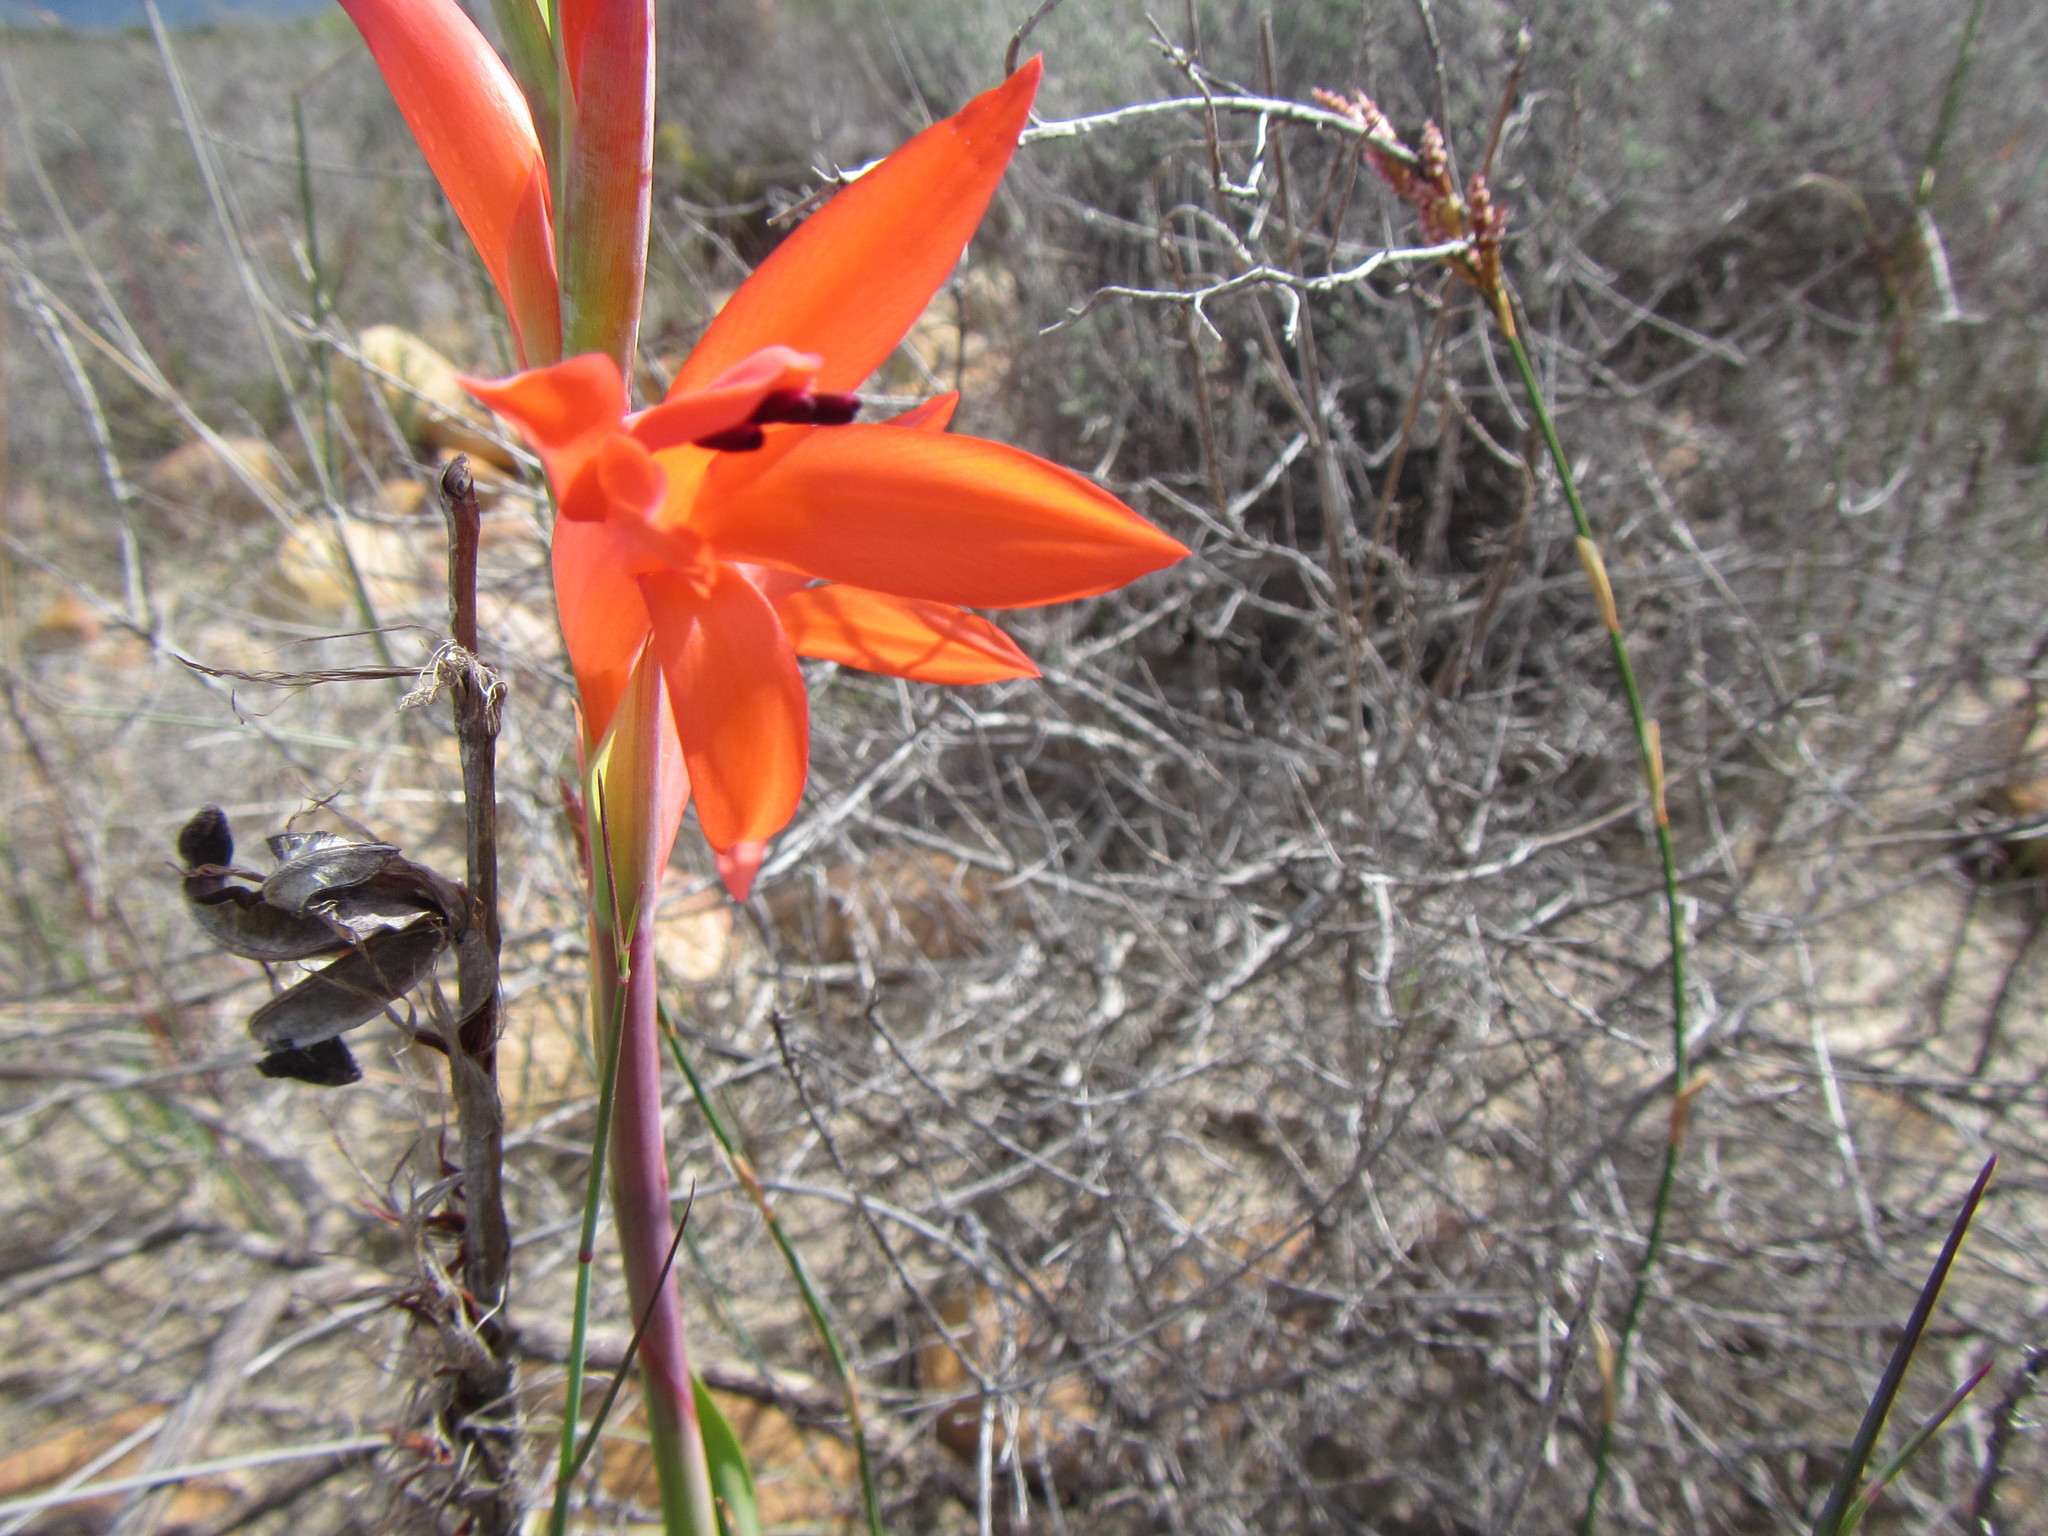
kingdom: Plantae
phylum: Tracheophyta
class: Liliopsida
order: Asparagales
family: Iridaceae
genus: Watsonia
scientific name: Watsonia spectabilis
